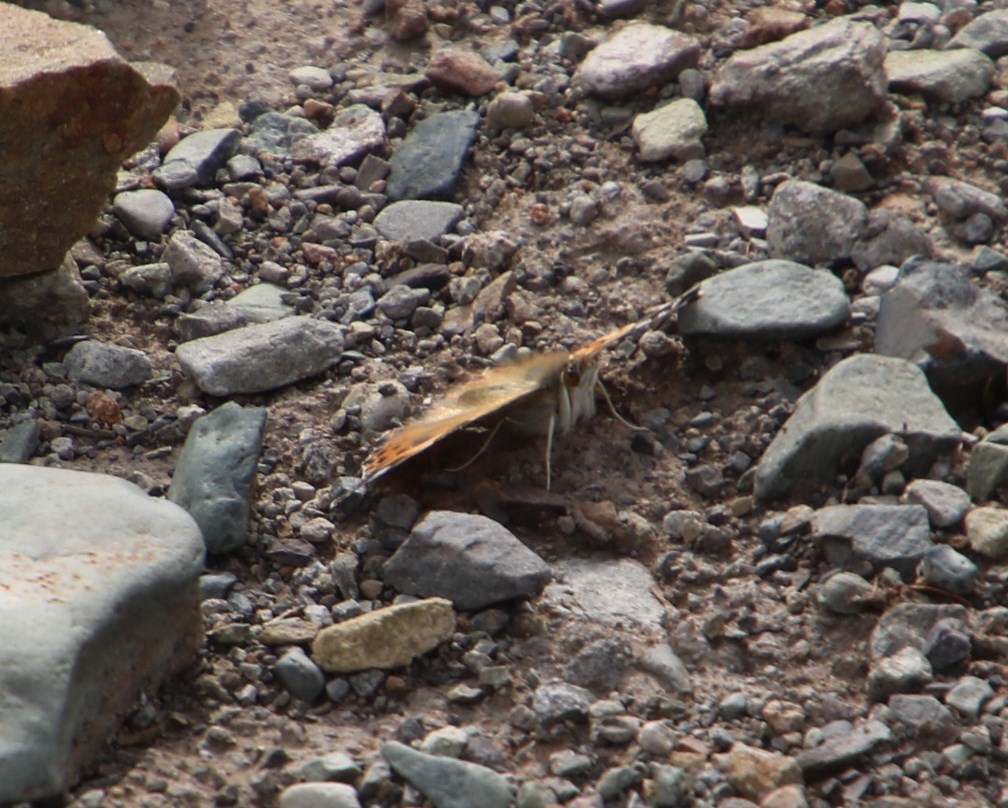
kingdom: Animalia
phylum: Arthropoda
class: Insecta
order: Lepidoptera
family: Nymphalidae
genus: Vanessa
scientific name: Vanessa cardui
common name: Painted lady
